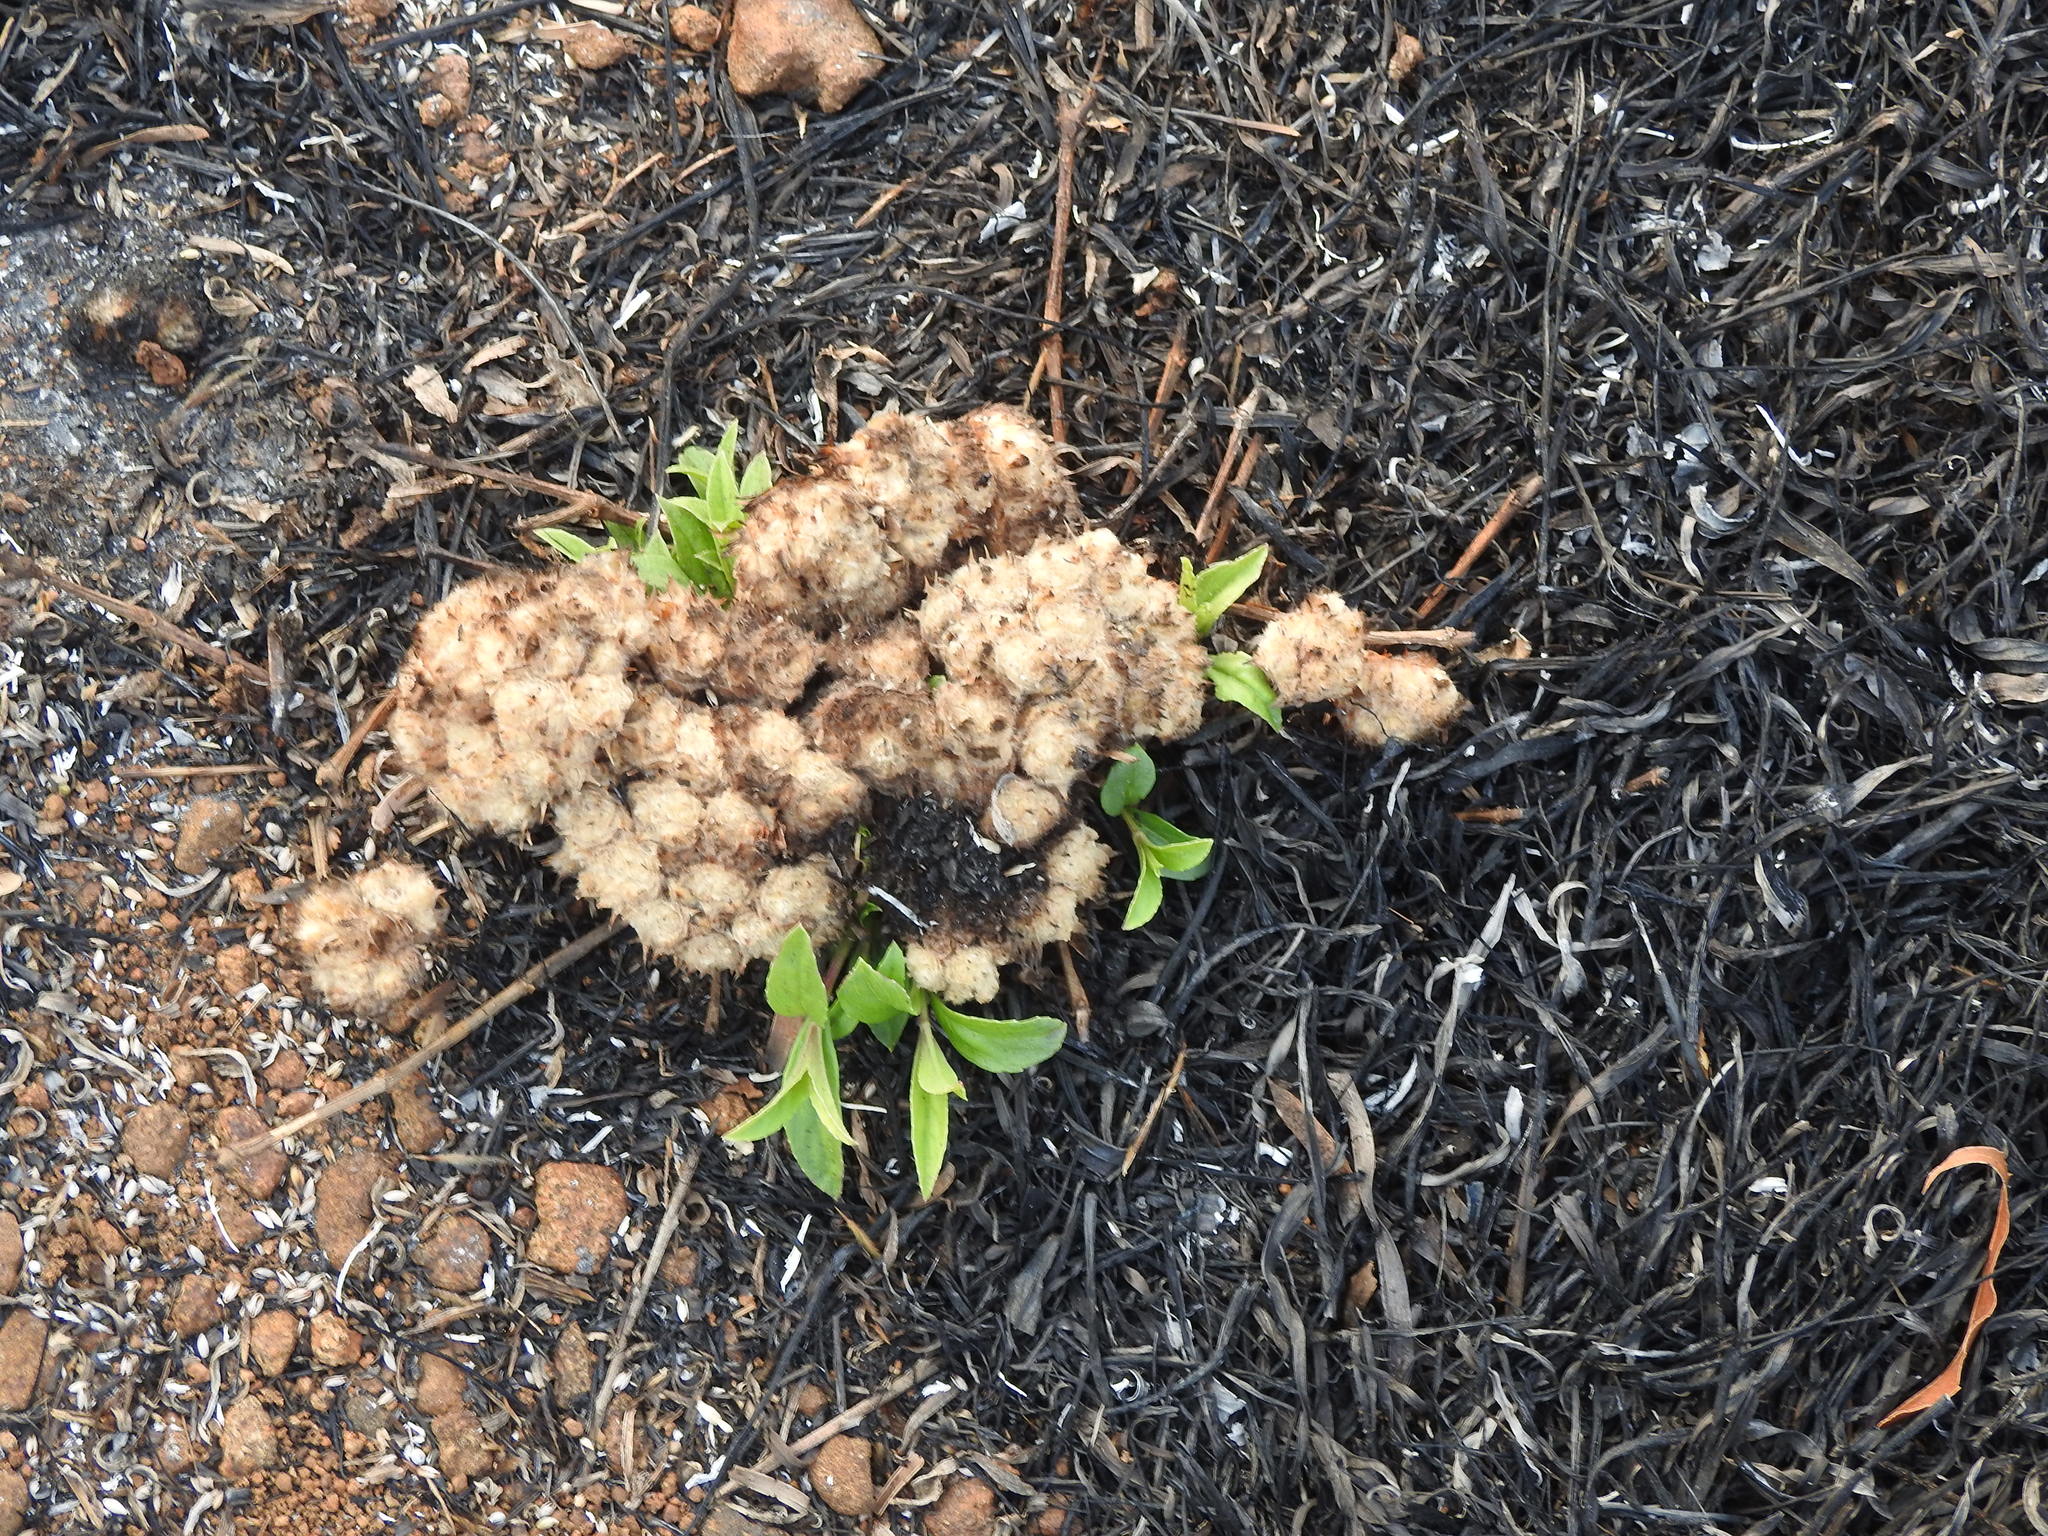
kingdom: Plantae
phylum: Tracheophyta
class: Magnoliopsida
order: Lamiales
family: Acanthaceae
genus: Lepidagathis
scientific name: Lepidagathis cristata
